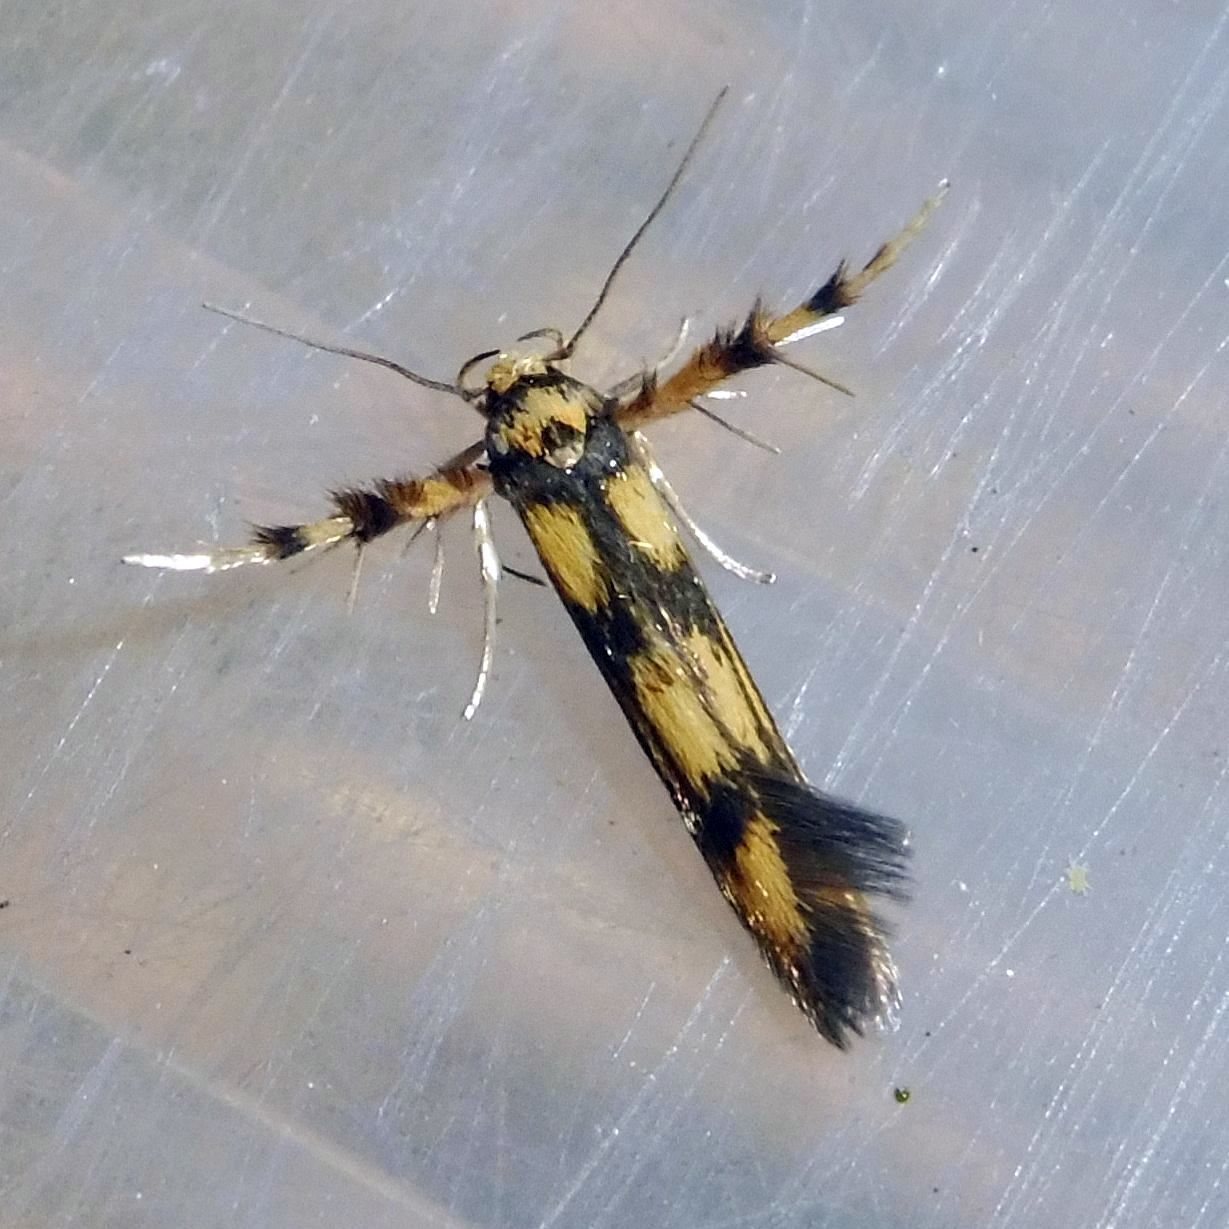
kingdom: Animalia
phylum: Arthropoda
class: Insecta
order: Lepidoptera
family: Stathmopodidae
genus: Stathmopoda
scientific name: Stathmopoda pedella
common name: Alder signal
